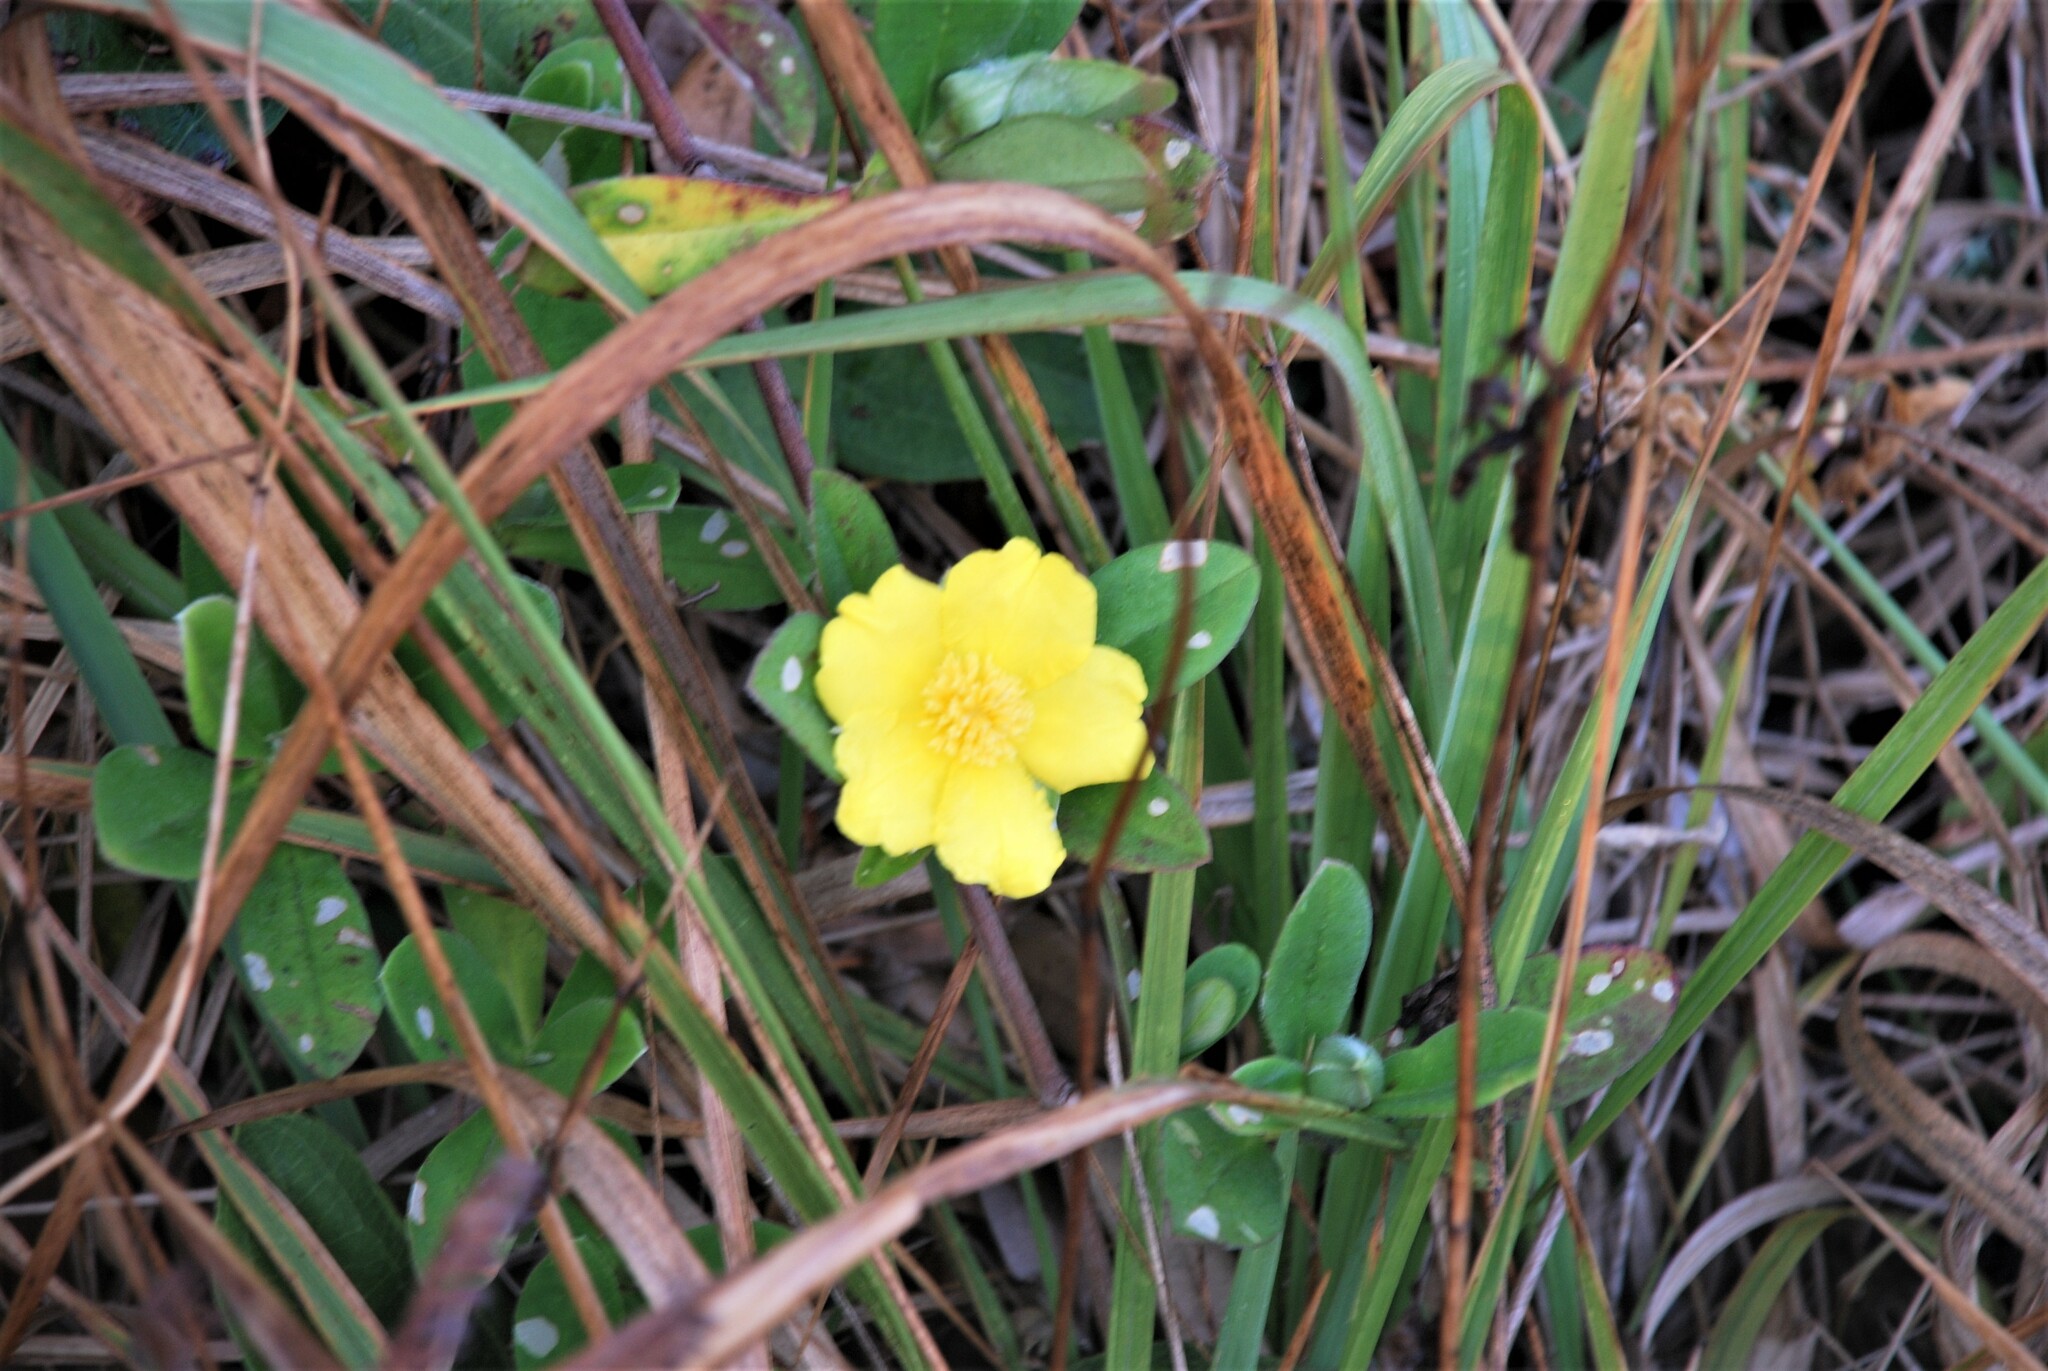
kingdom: Plantae
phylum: Tracheophyta
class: Magnoliopsida
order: Dilleniales
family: Dilleniaceae
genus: Hibbertia
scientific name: Hibbertia scandens
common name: Climbing guinea-flower
